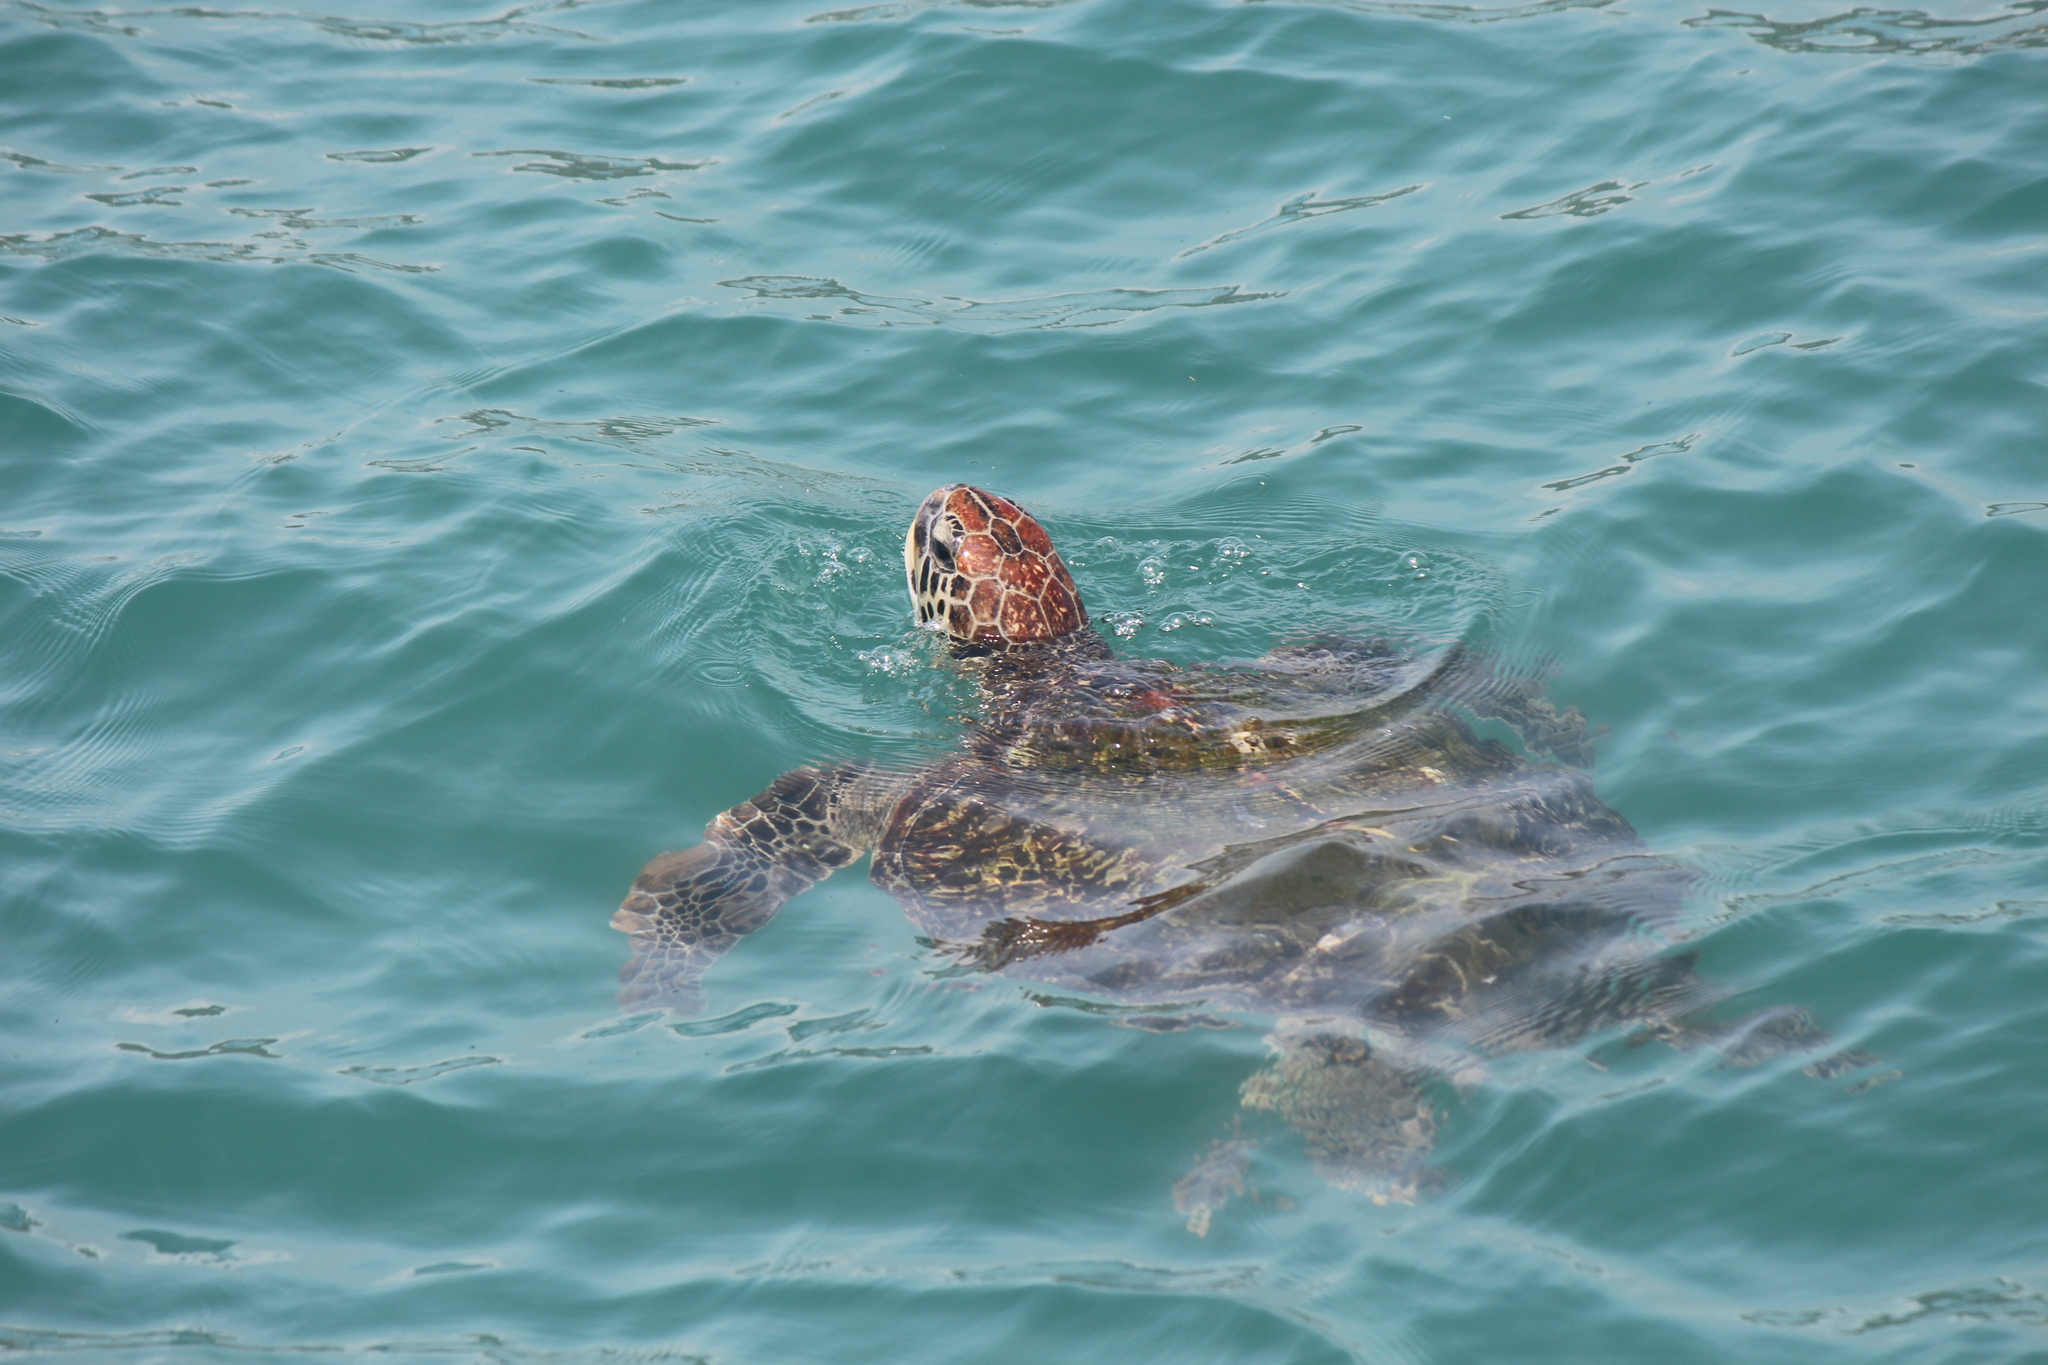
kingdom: Animalia
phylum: Chordata
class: Testudines
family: Cheloniidae
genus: Chelonia
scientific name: Chelonia mydas
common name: Green turtle
